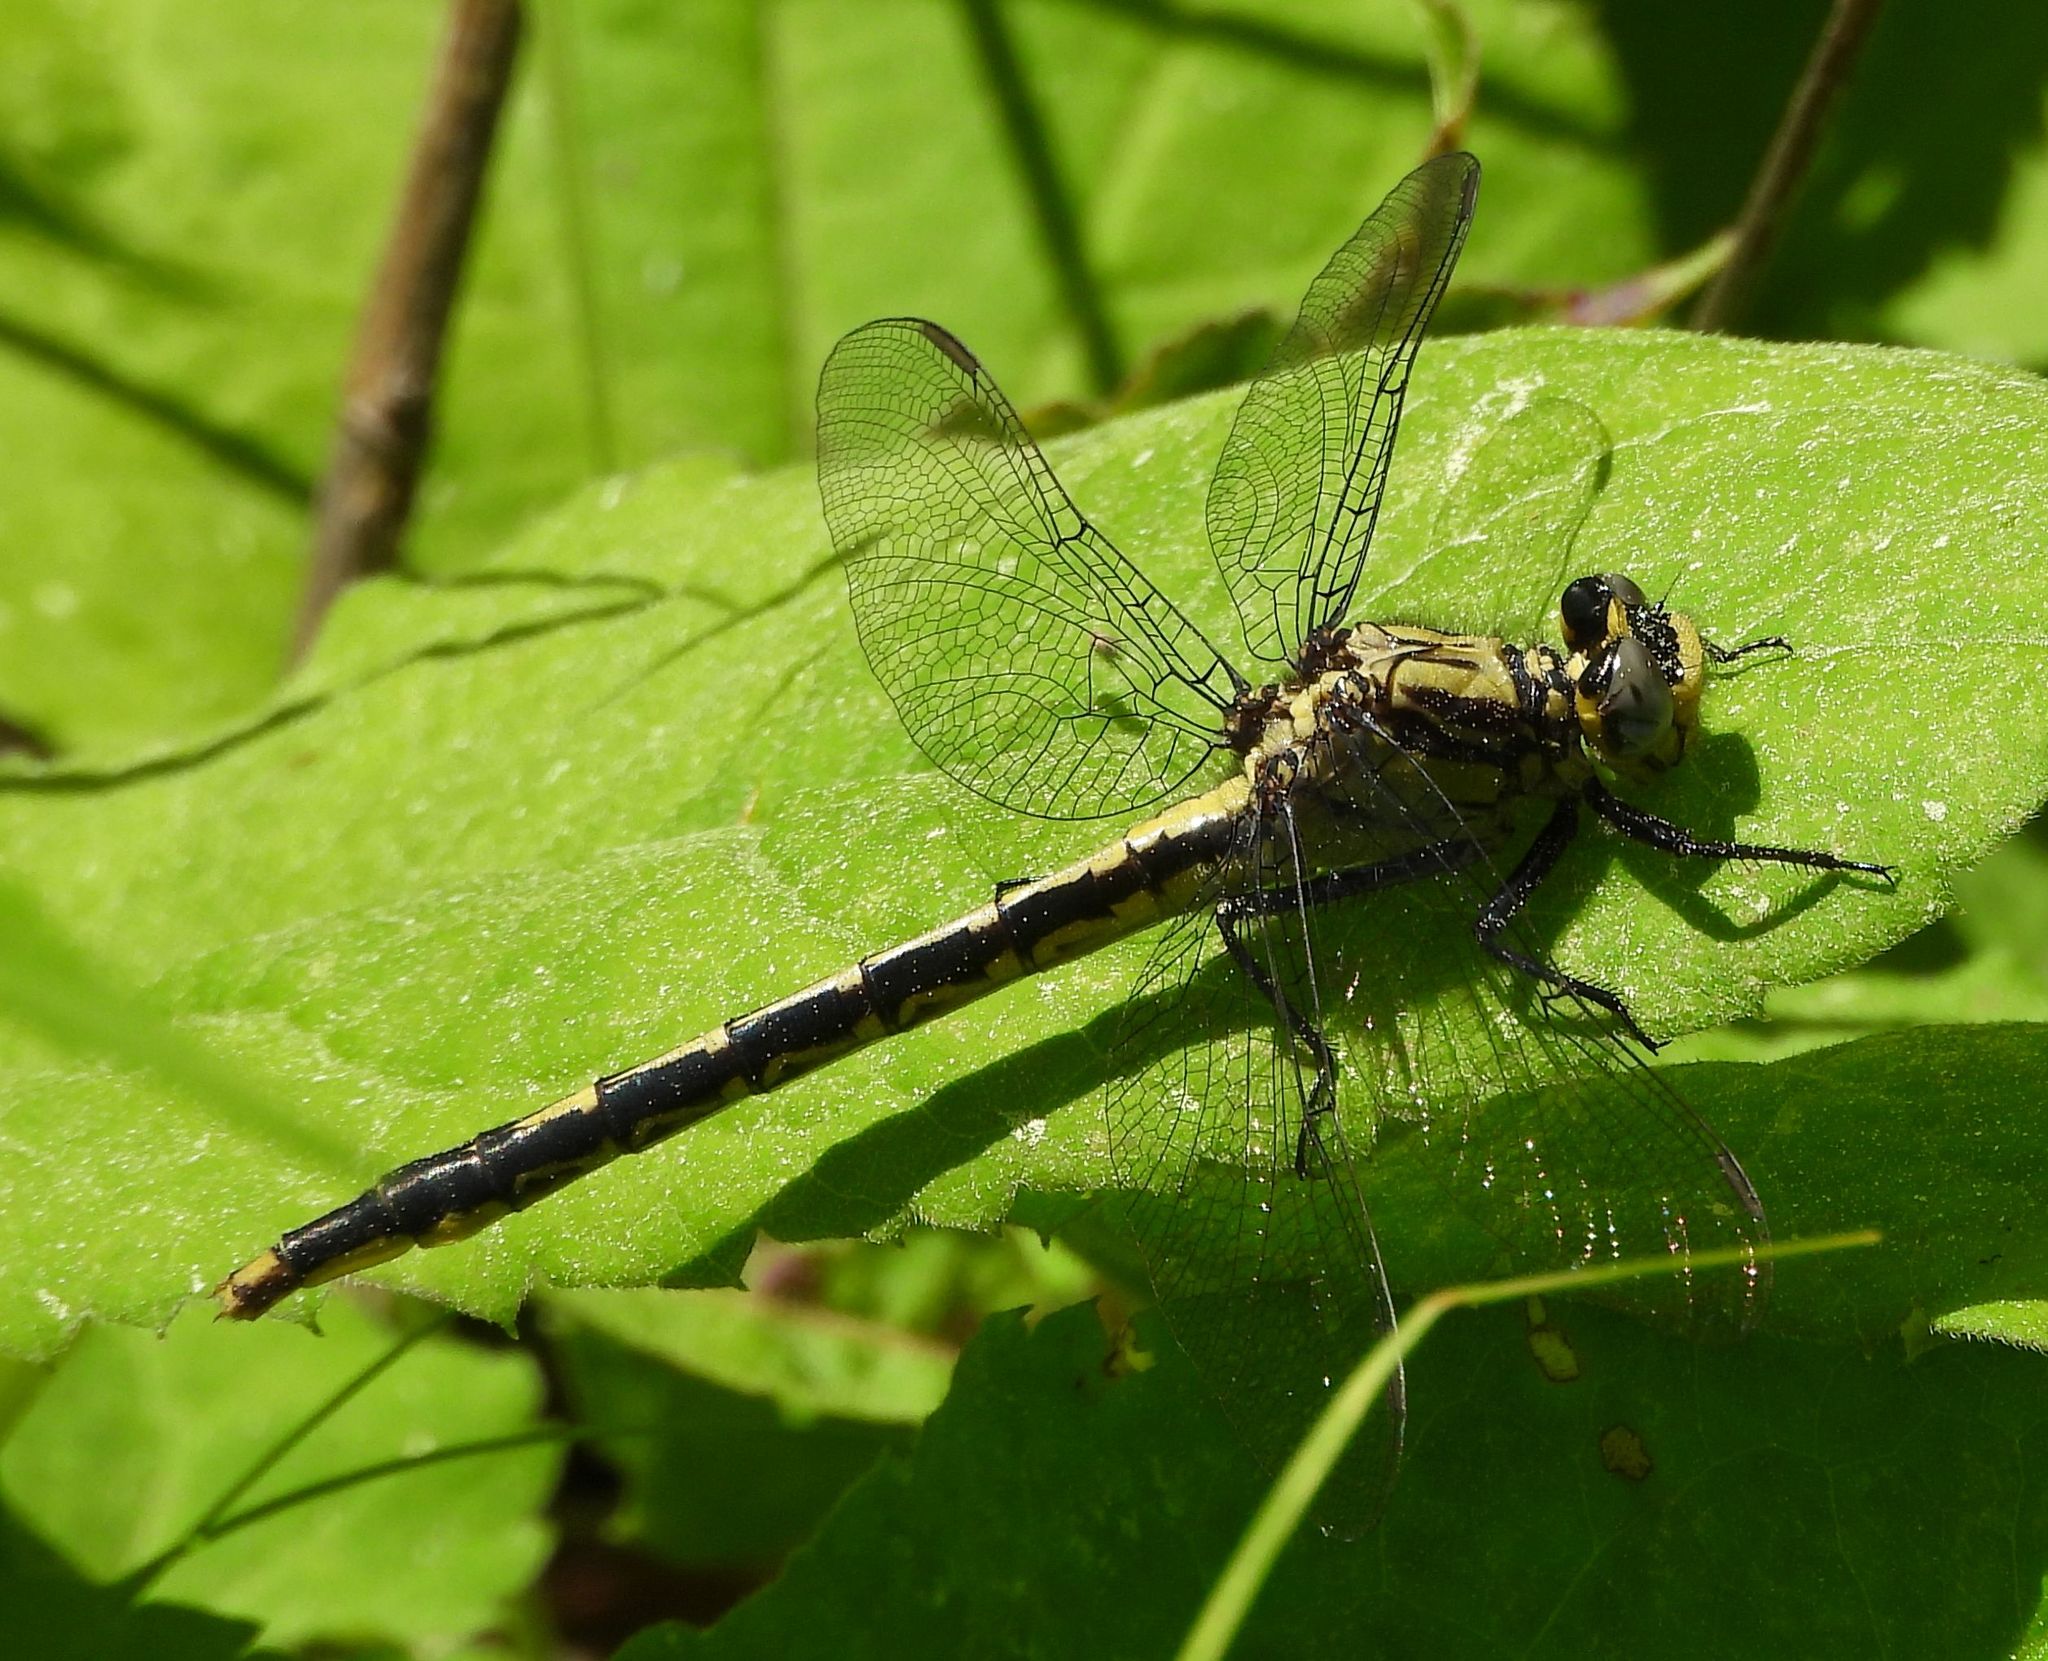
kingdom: Animalia
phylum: Arthropoda
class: Insecta
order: Odonata
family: Gomphidae
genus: Arigomphus
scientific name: Arigomphus furcifer
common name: Lilypad clubtail
